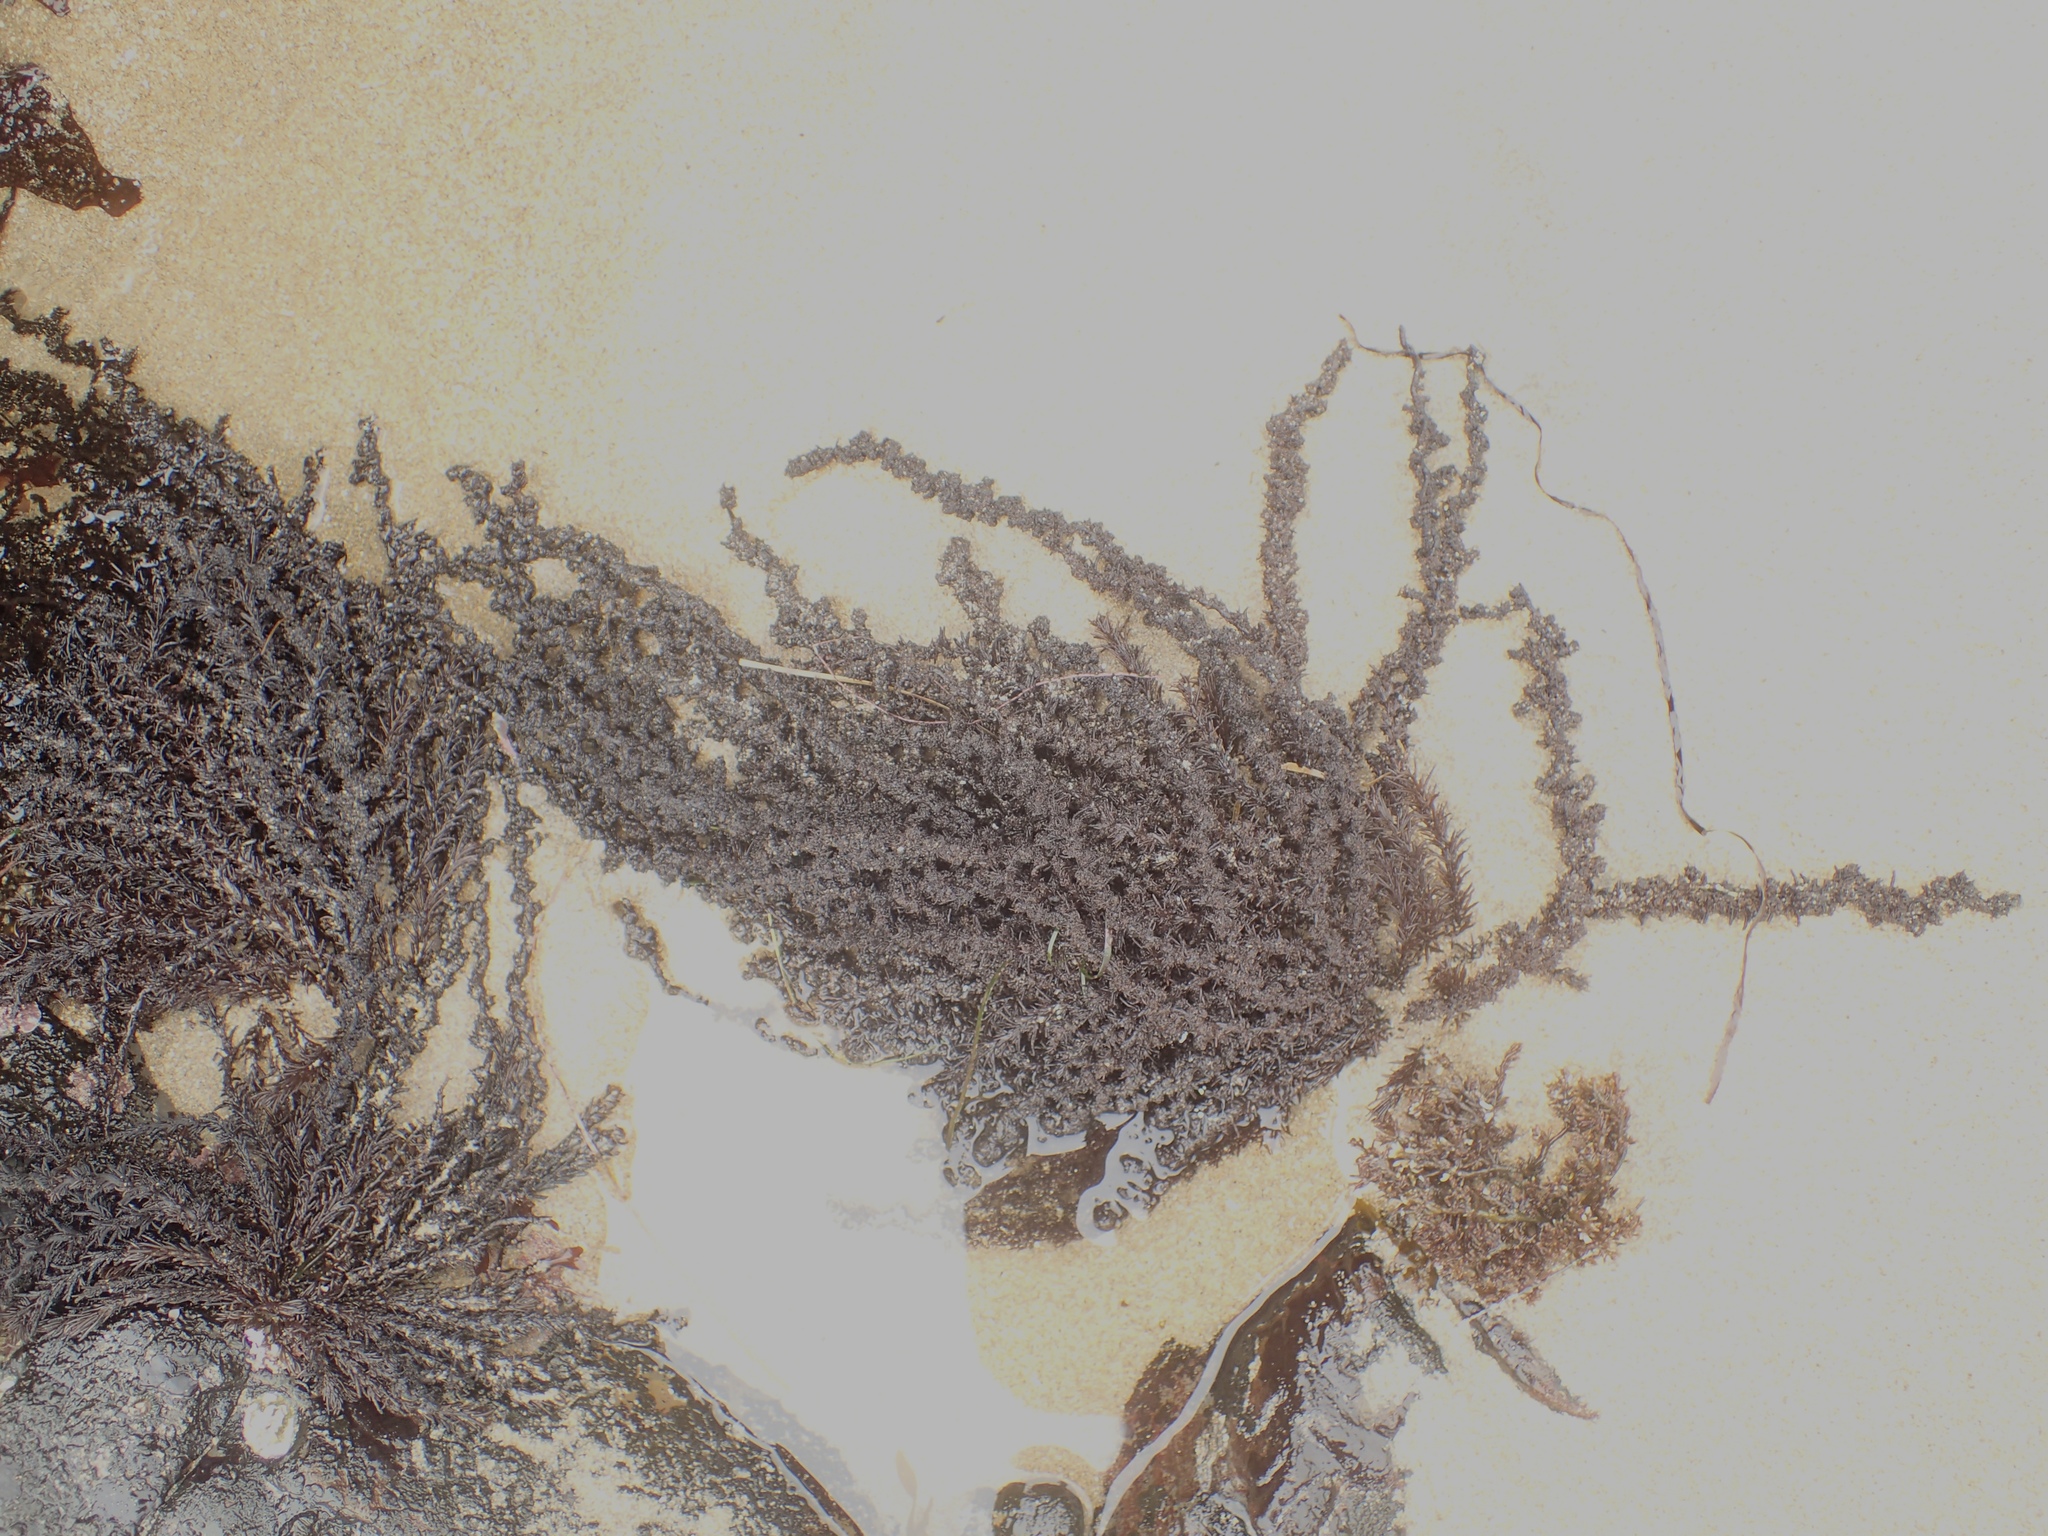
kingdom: Plantae
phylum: Rhodophyta
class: Florideophyceae
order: Ceramiales
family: Rhodomelaceae
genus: Neorhodomela
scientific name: Neorhodomela larix
